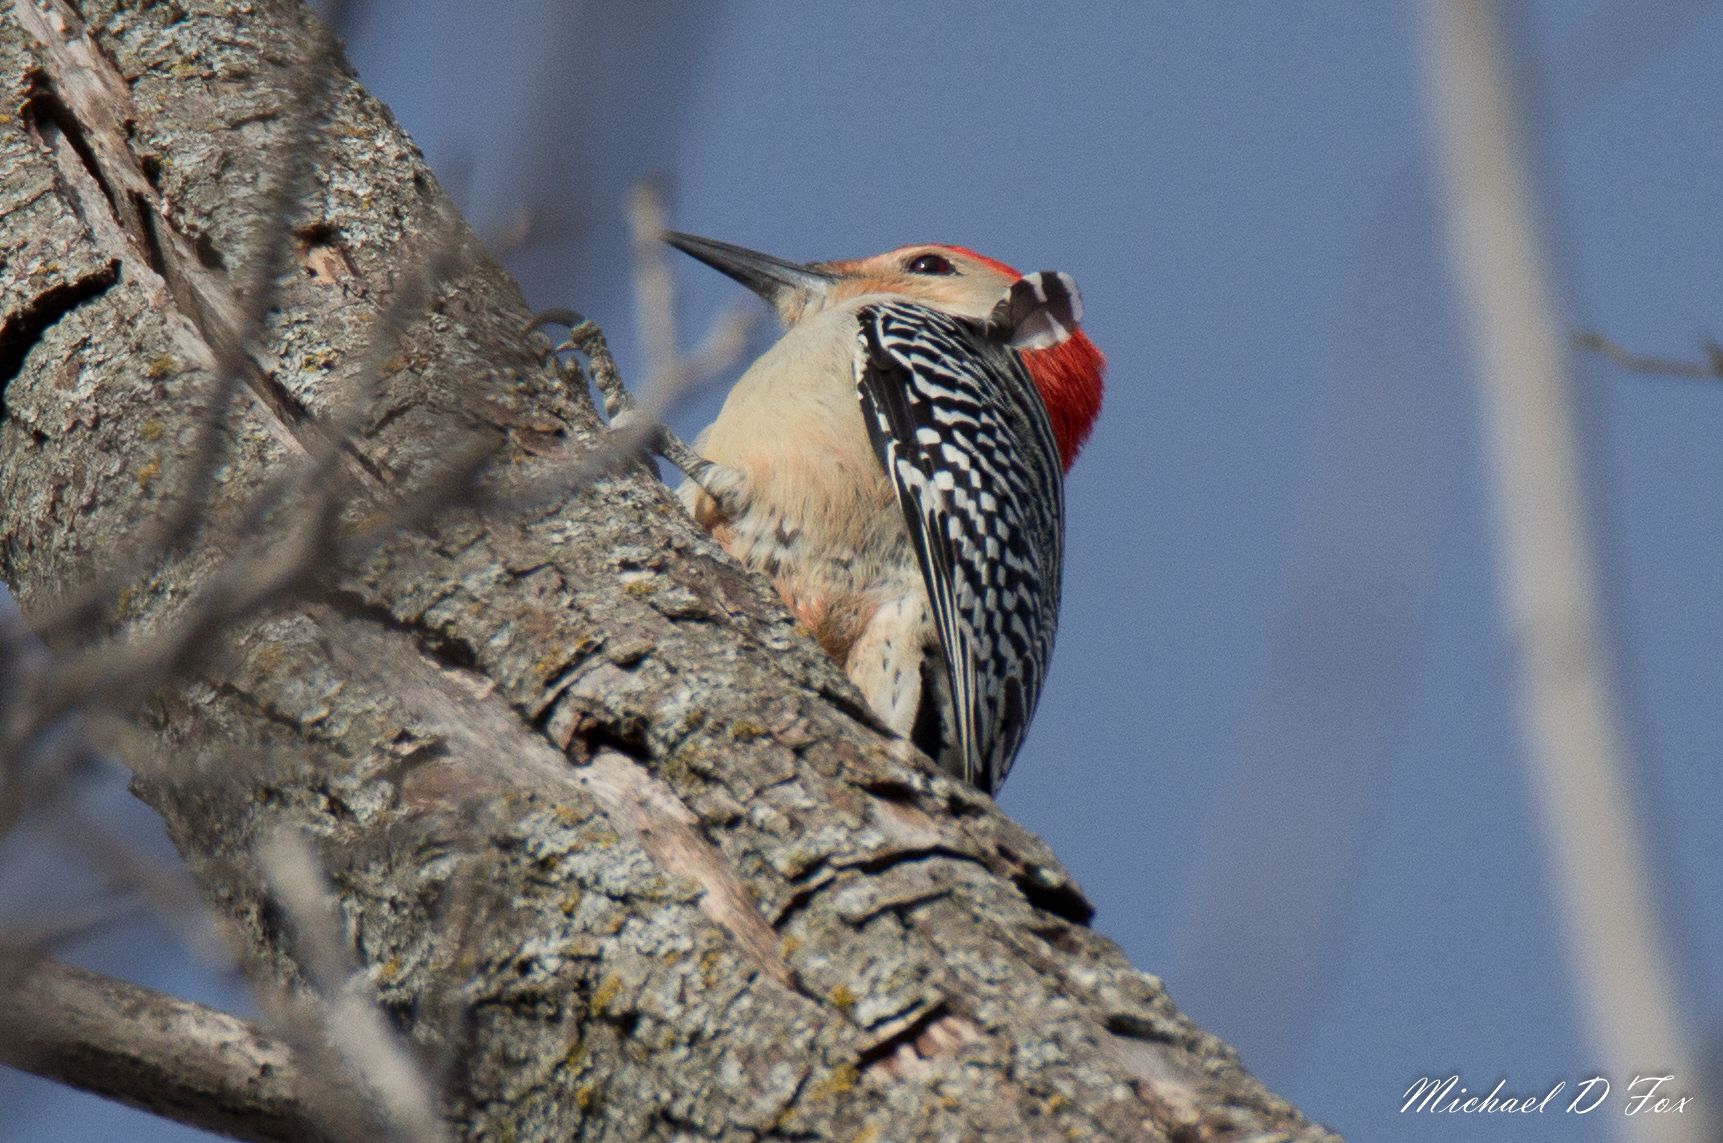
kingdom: Animalia
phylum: Chordata
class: Aves
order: Piciformes
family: Picidae
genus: Melanerpes
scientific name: Melanerpes carolinus
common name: Red-bellied woodpecker
